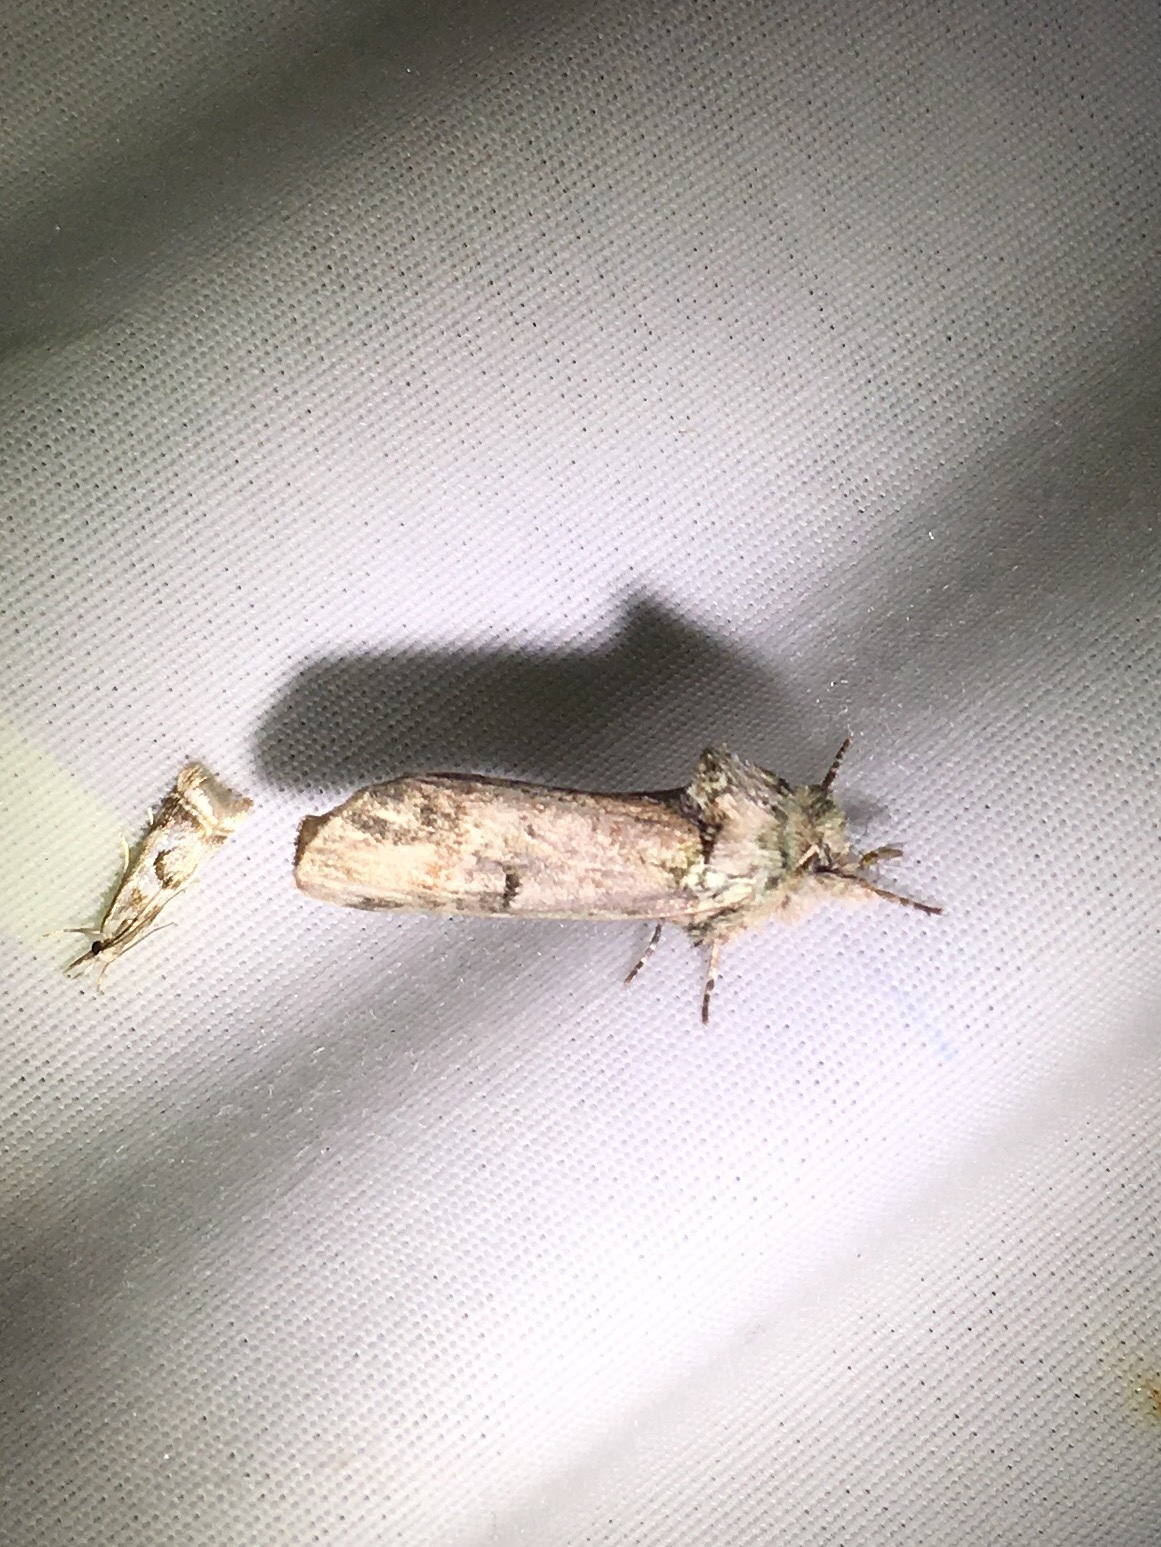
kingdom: Animalia
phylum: Arthropoda
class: Insecta
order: Lepidoptera
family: Notodontidae
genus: Schizura
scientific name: Schizura
